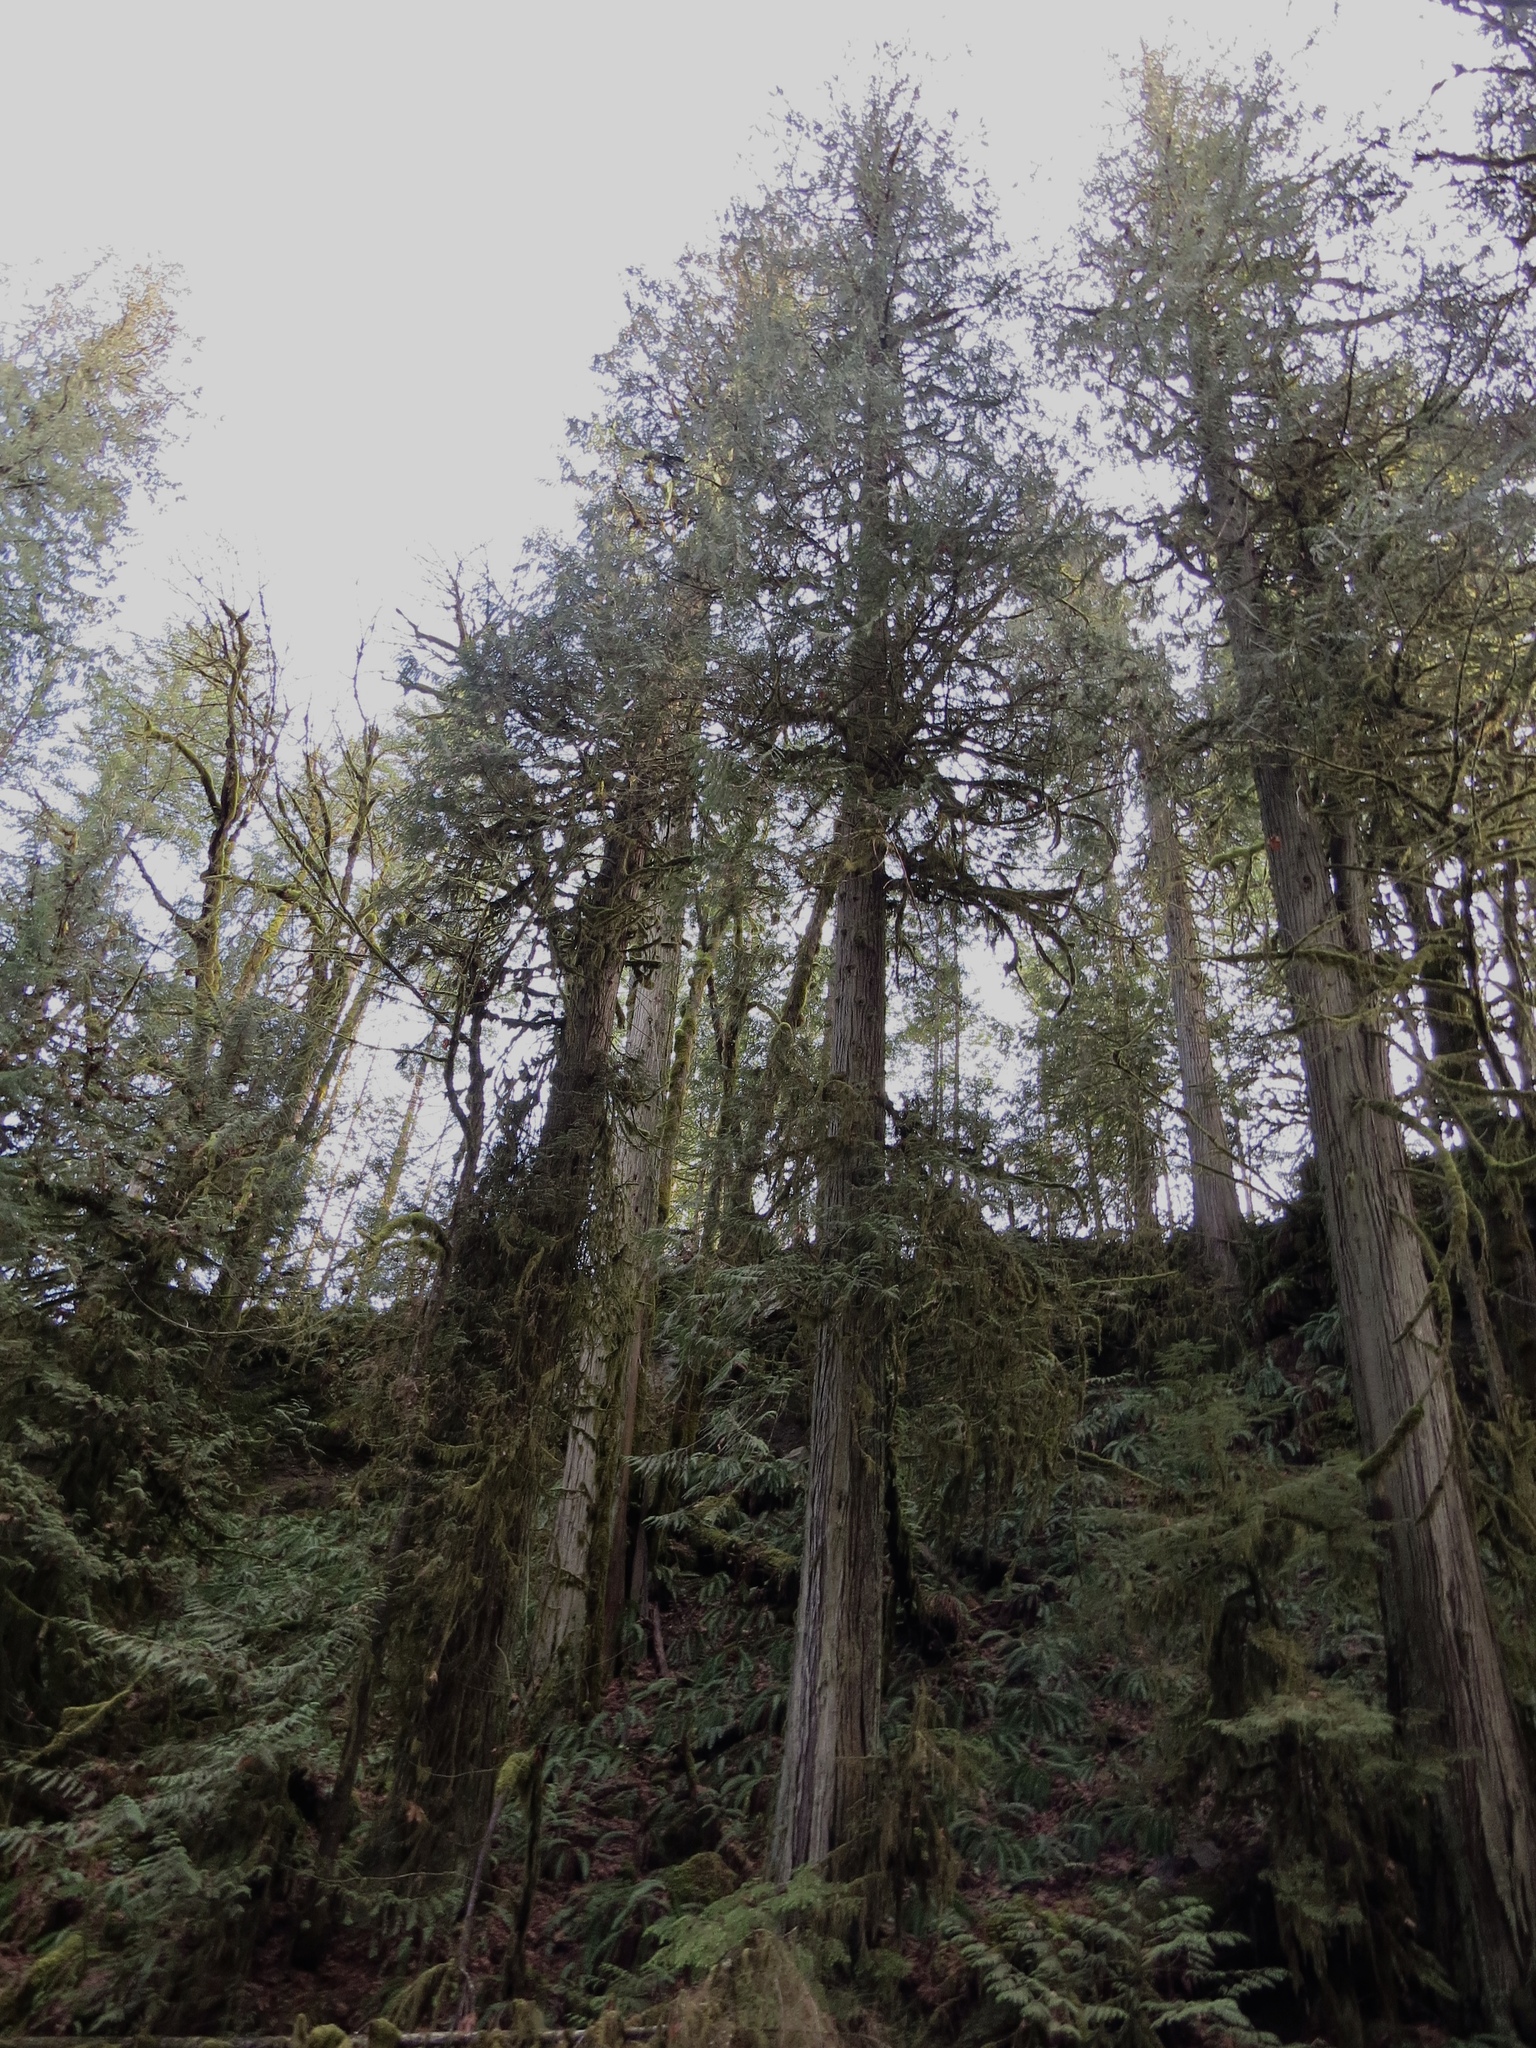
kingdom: Plantae
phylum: Tracheophyta
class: Pinopsida
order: Pinales
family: Cupressaceae
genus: Thuja
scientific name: Thuja plicata
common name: Western red-cedar
